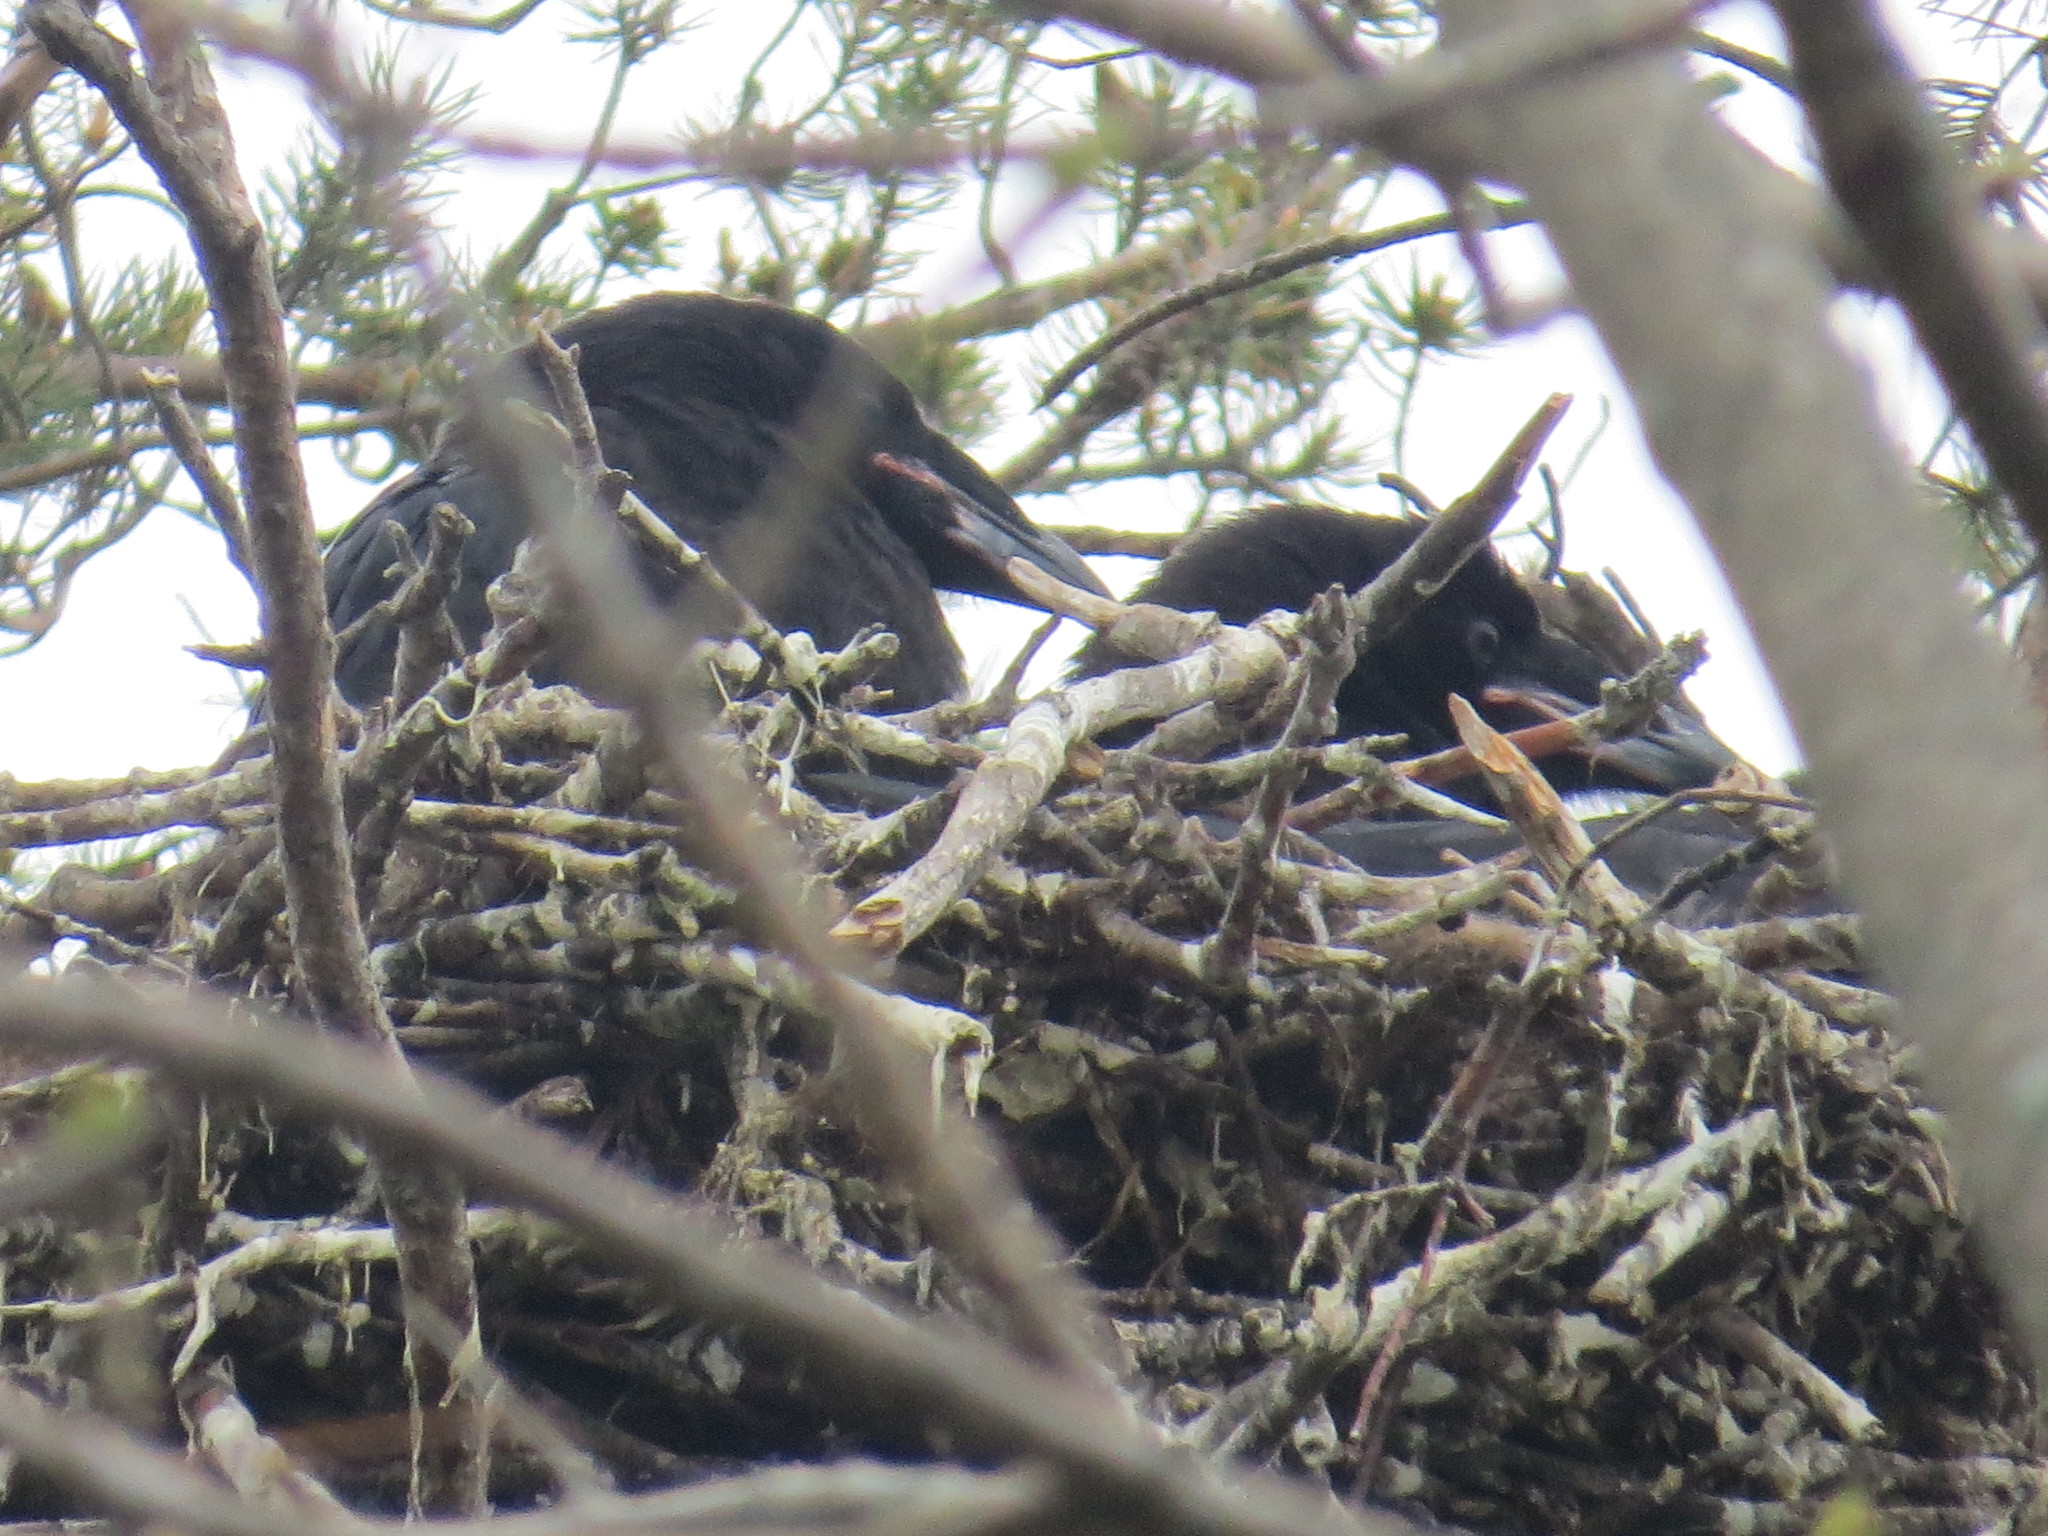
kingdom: Animalia
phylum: Chordata
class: Aves
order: Passeriformes
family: Corvidae
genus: Corvus
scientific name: Corvus corax
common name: Common raven
